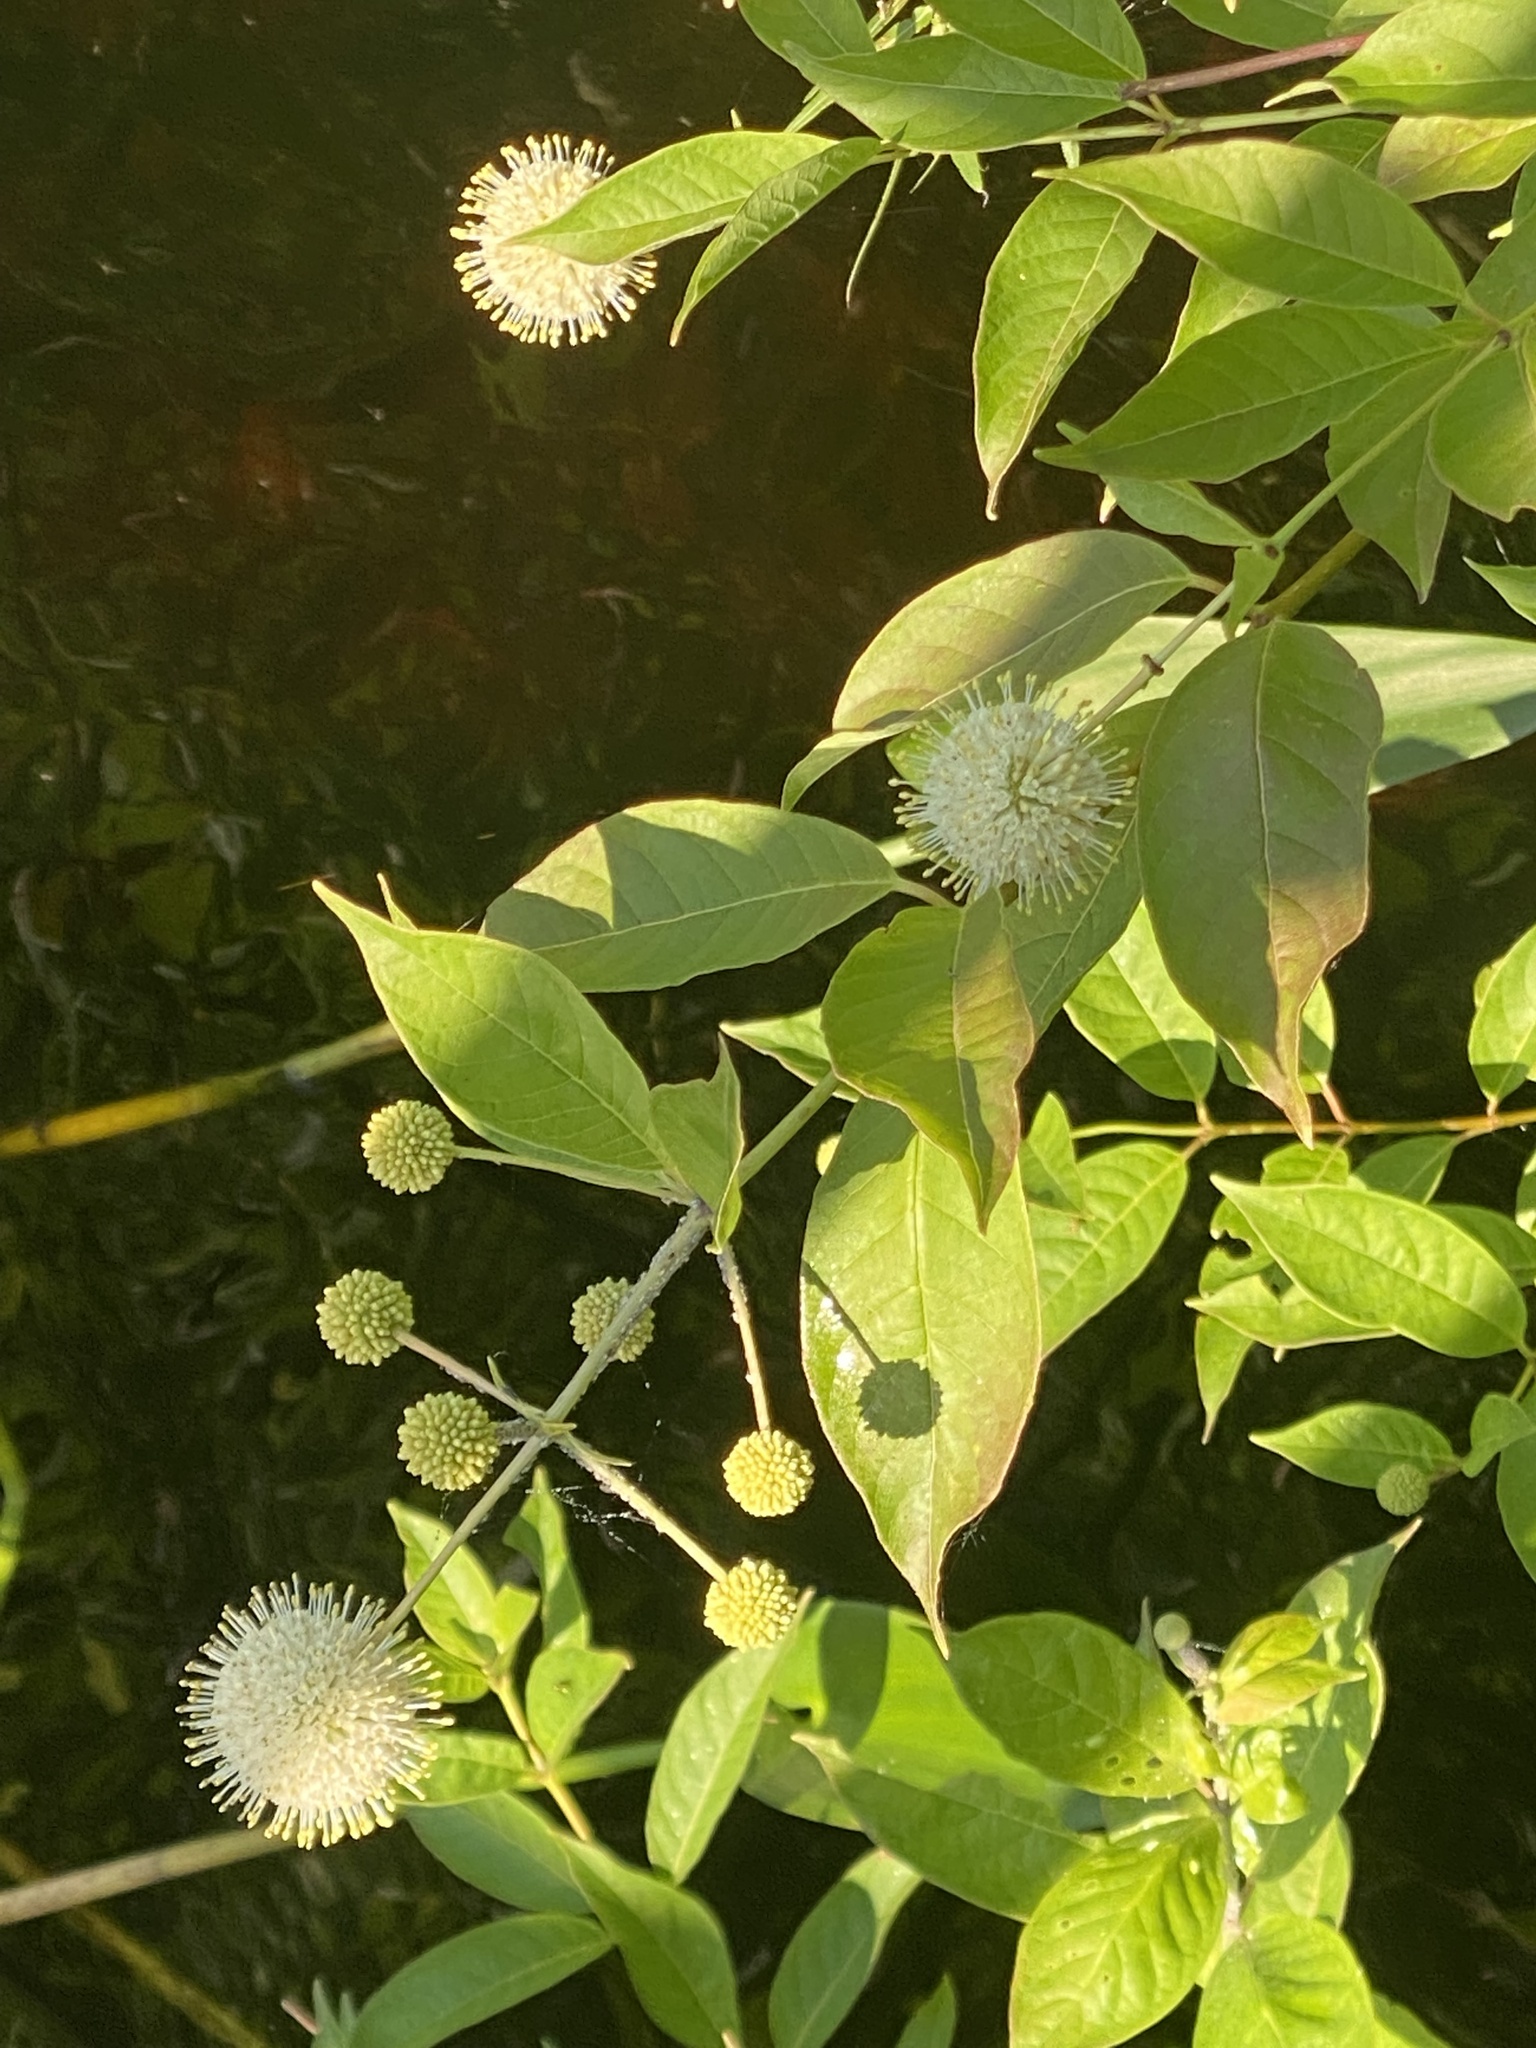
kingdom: Plantae
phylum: Tracheophyta
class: Magnoliopsida
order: Gentianales
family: Rubiaceae
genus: Cephalanthus
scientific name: Cephalanthus occidentalis
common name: Button-willow
